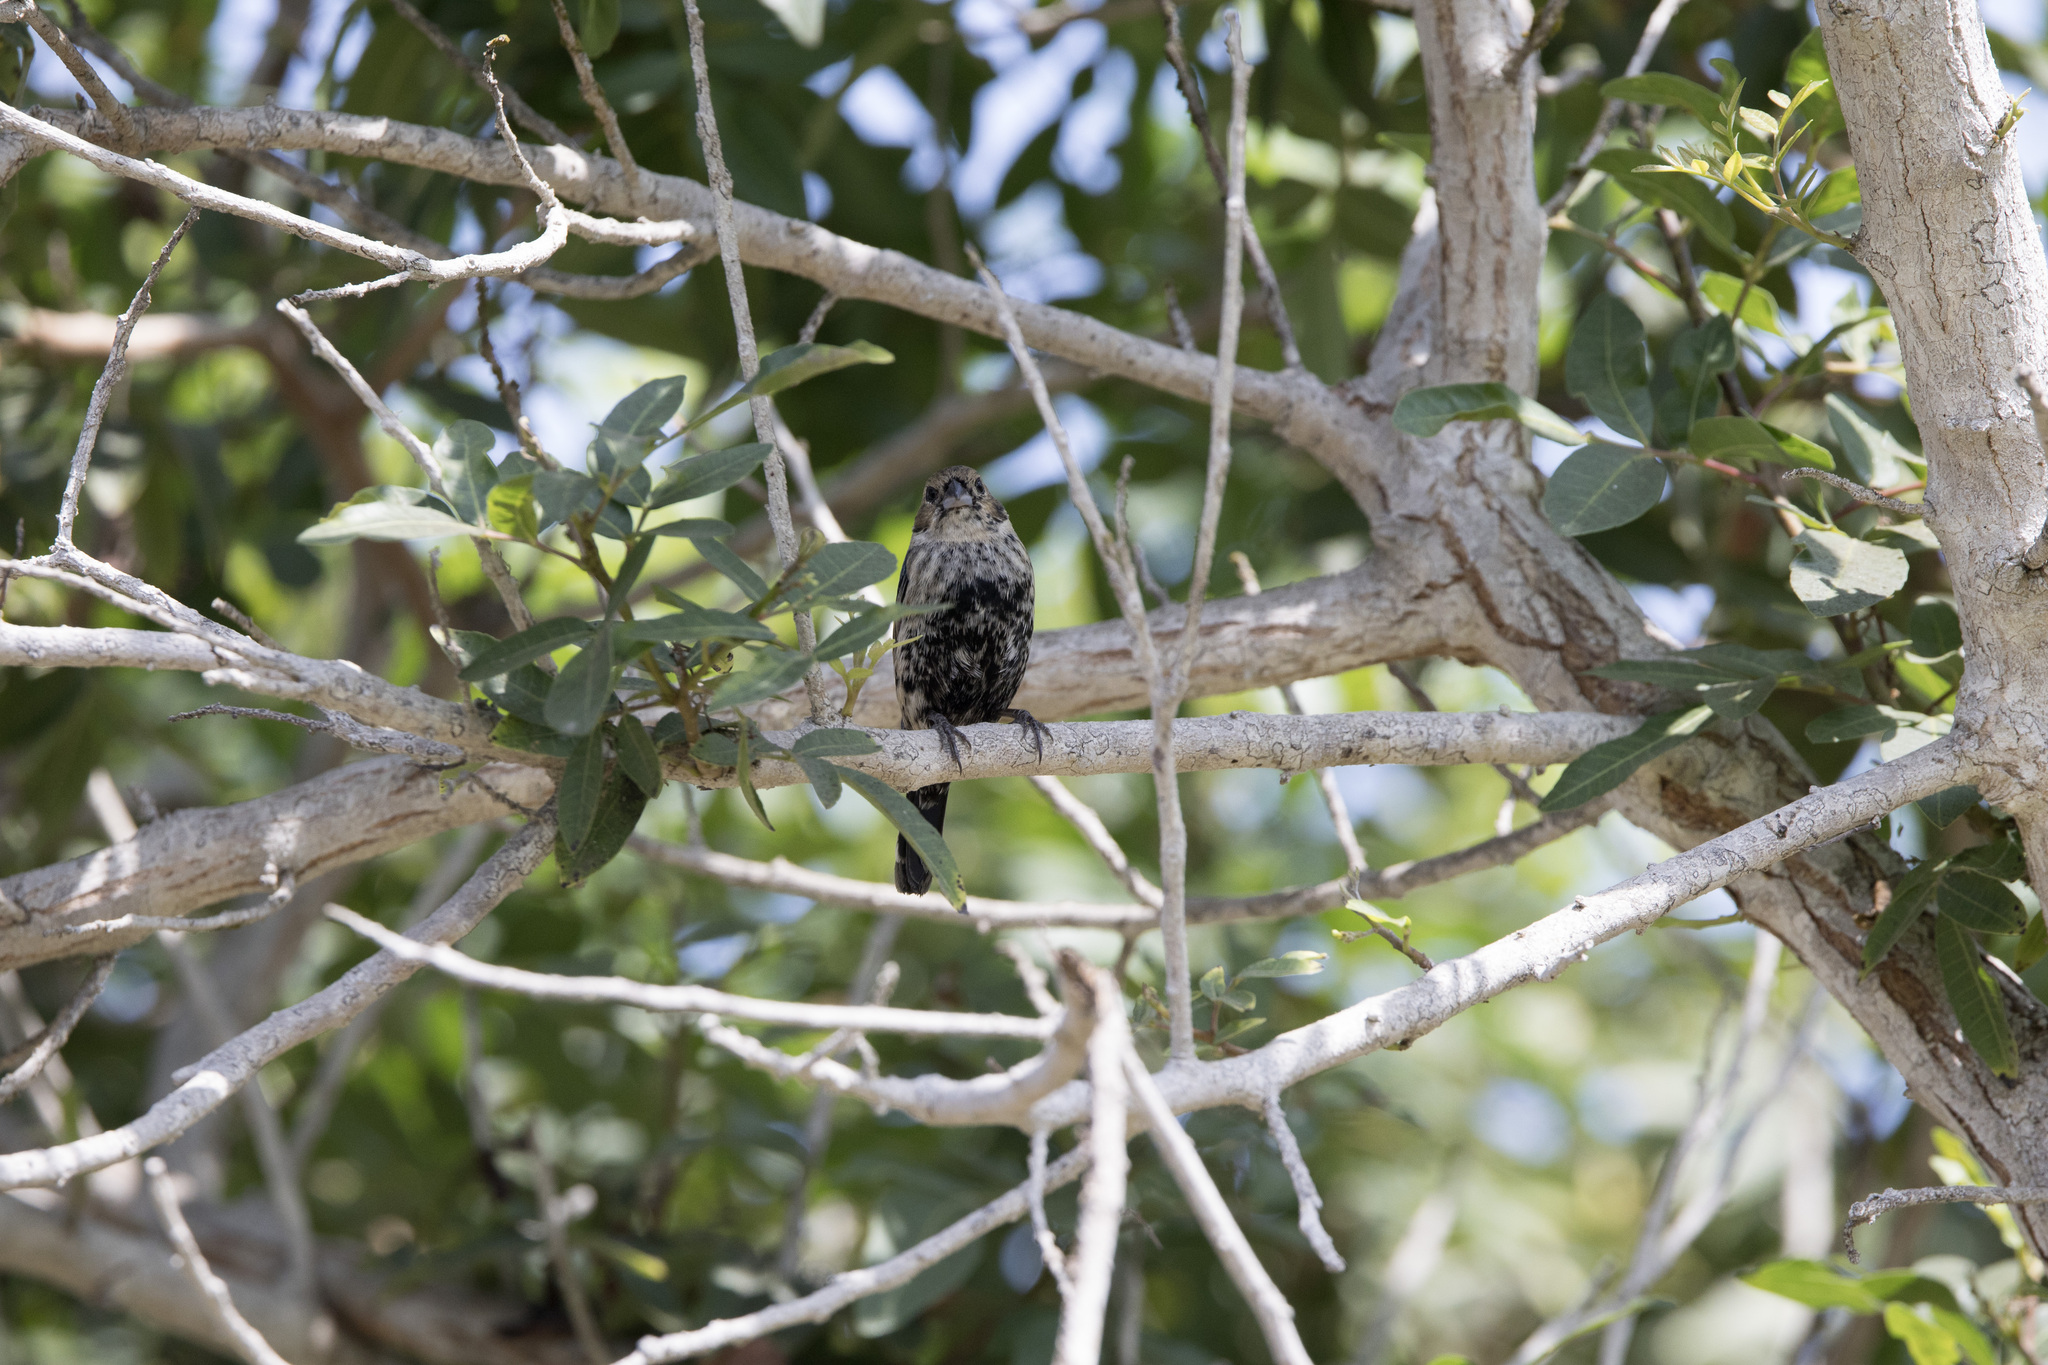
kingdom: Animalia
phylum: Chordata
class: Aves
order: Passeriformes
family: Thraupidae
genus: Volatinia
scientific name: Volatinia jacarina
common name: Blue-black grassquit
